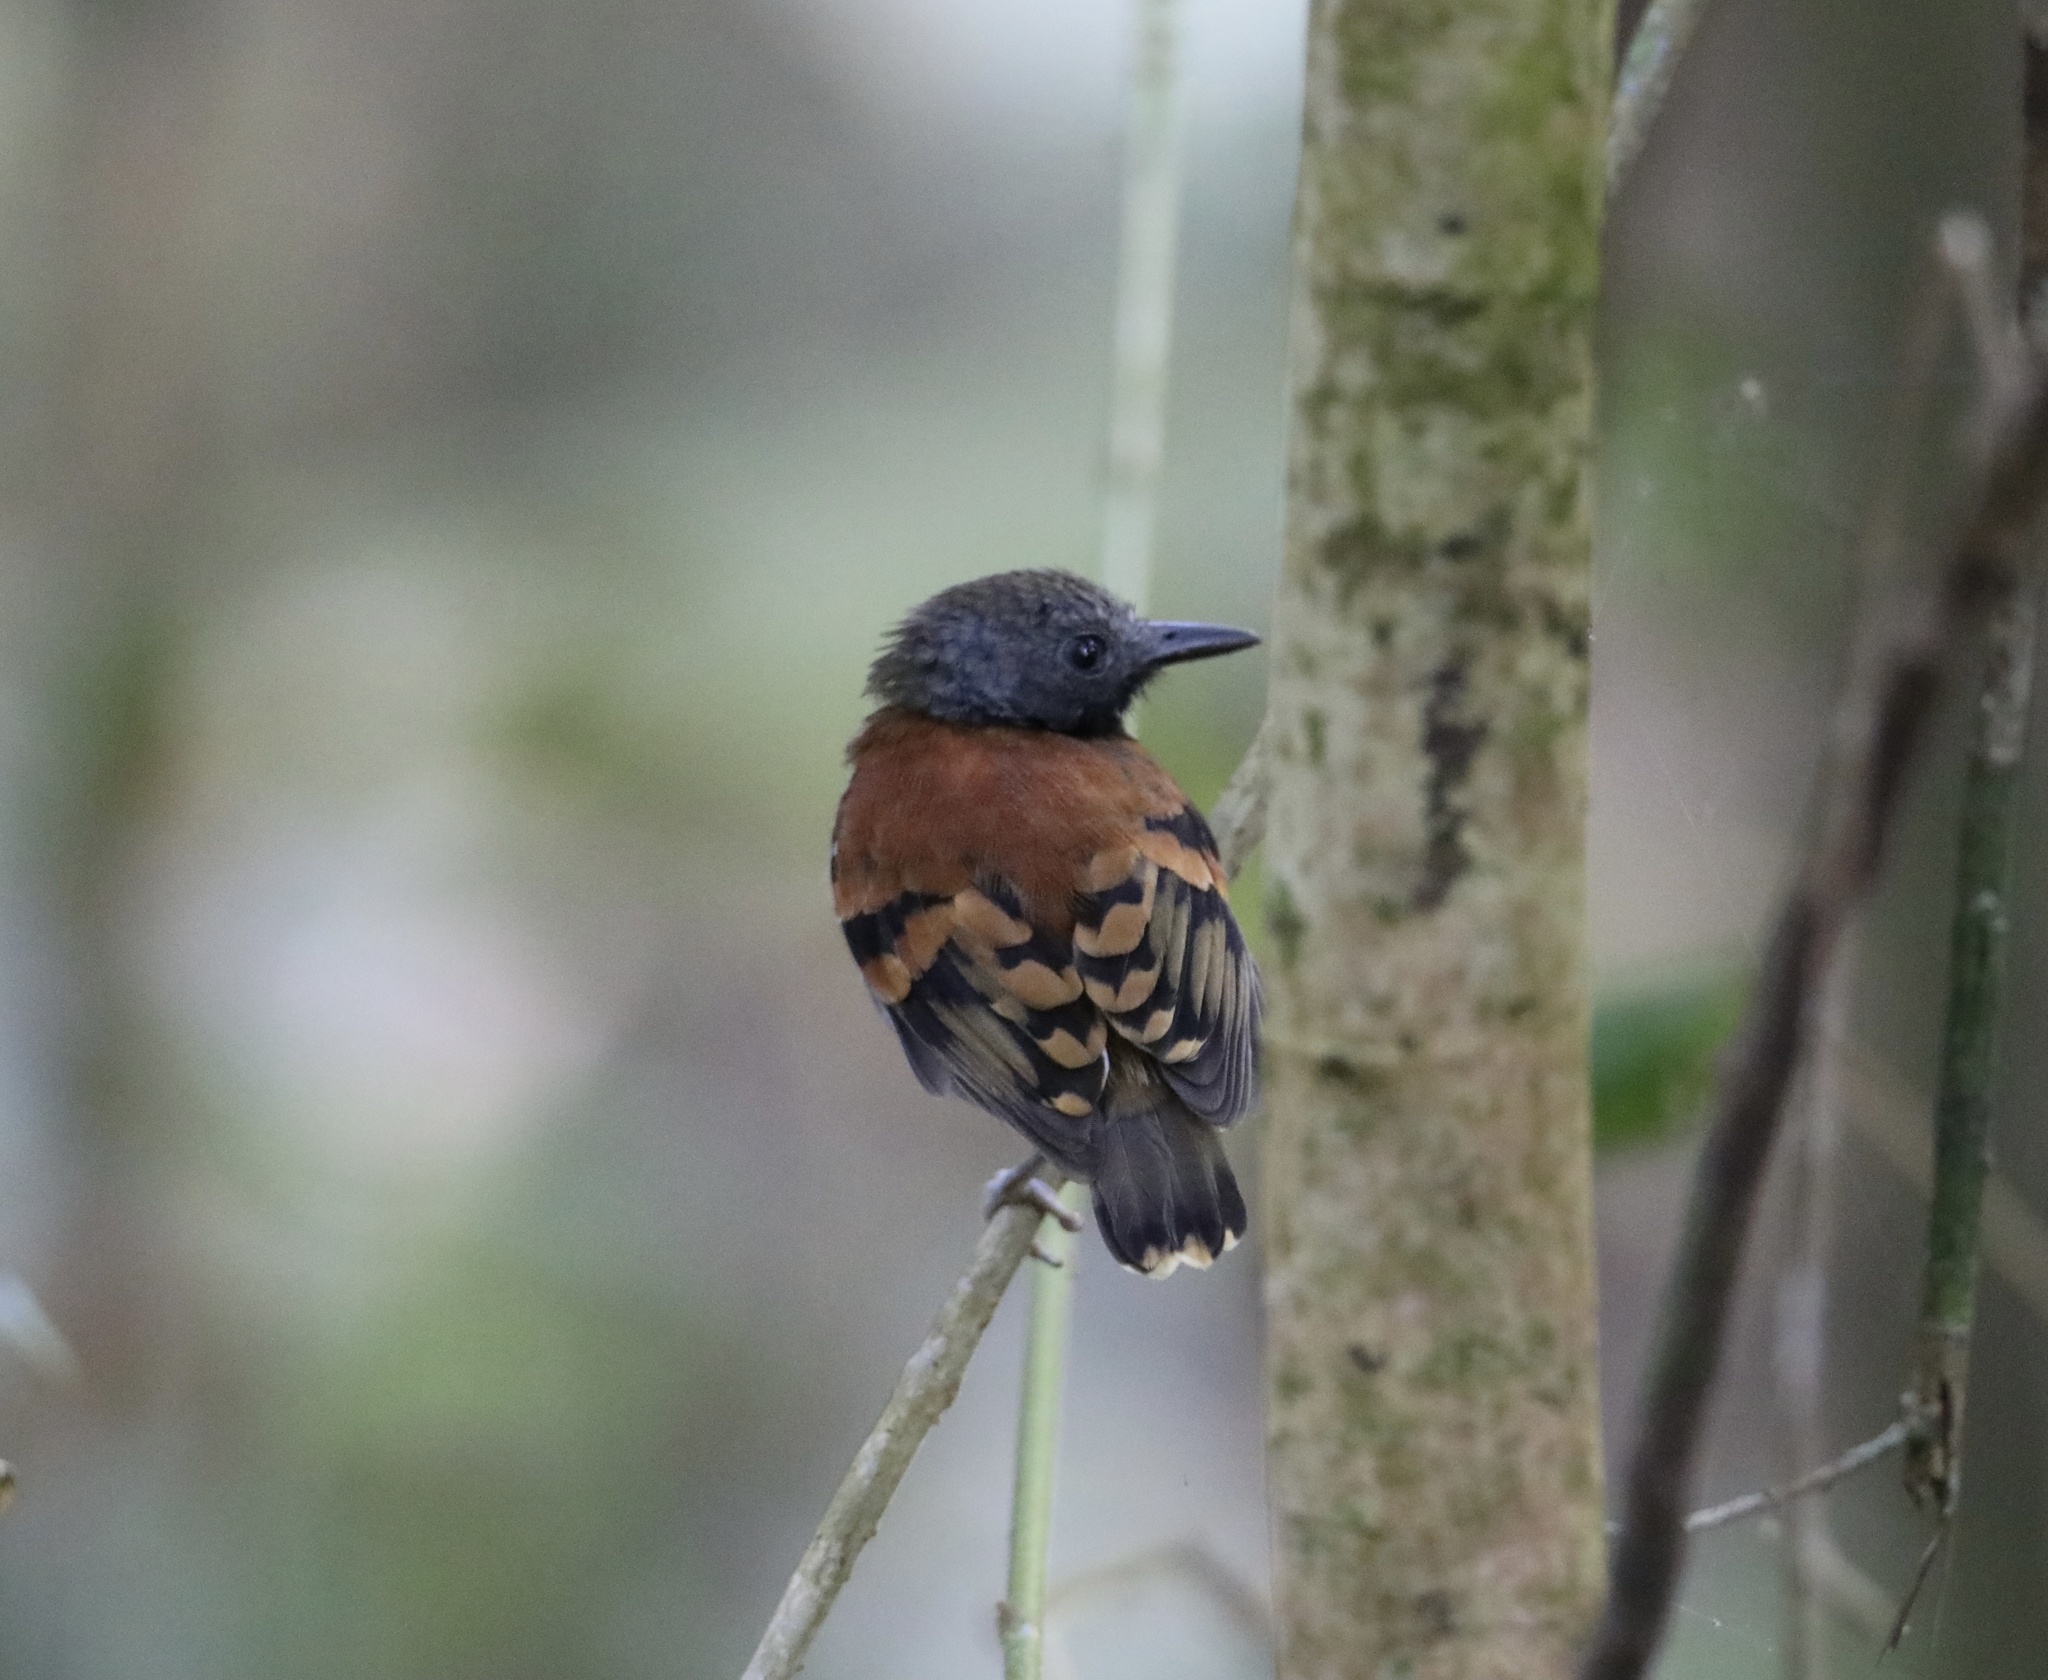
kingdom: Animalia
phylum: Chordata
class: Aves
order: Passeriformes
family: Thamnophilidae
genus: Hylophylax
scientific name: Hylophylax naevioides
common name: Spotted antbird
